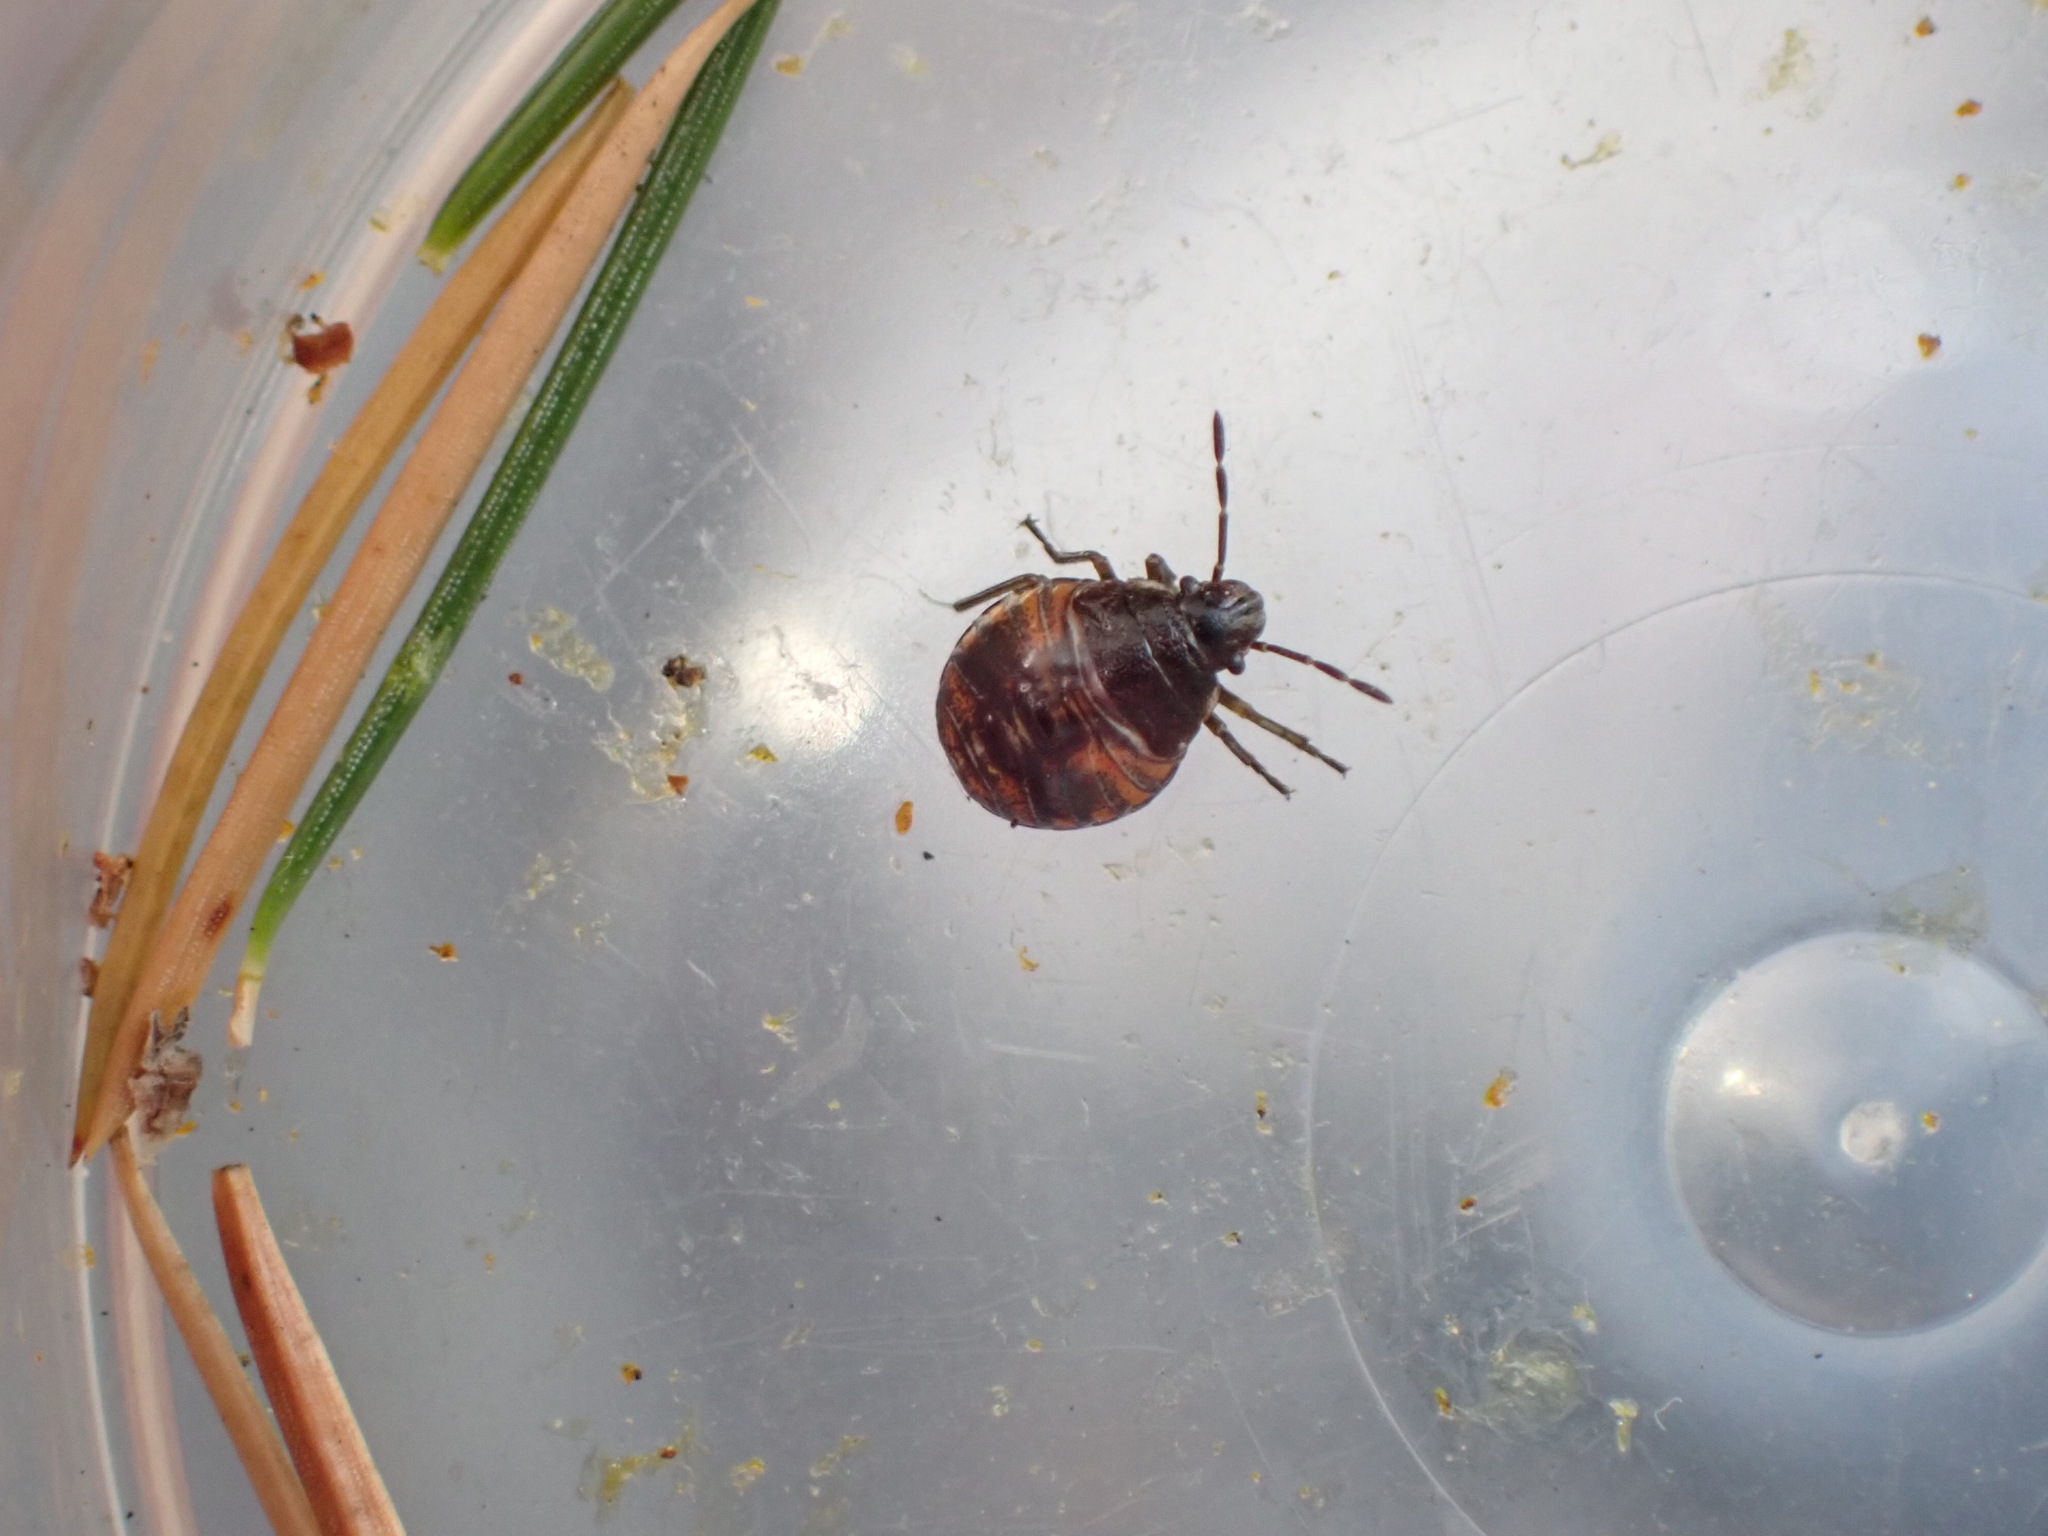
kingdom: Animalia
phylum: Arthropoda
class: Insecta
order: Hemiptera
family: Pentatomidae
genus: Holcogaster
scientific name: Holcogaster fibulata
